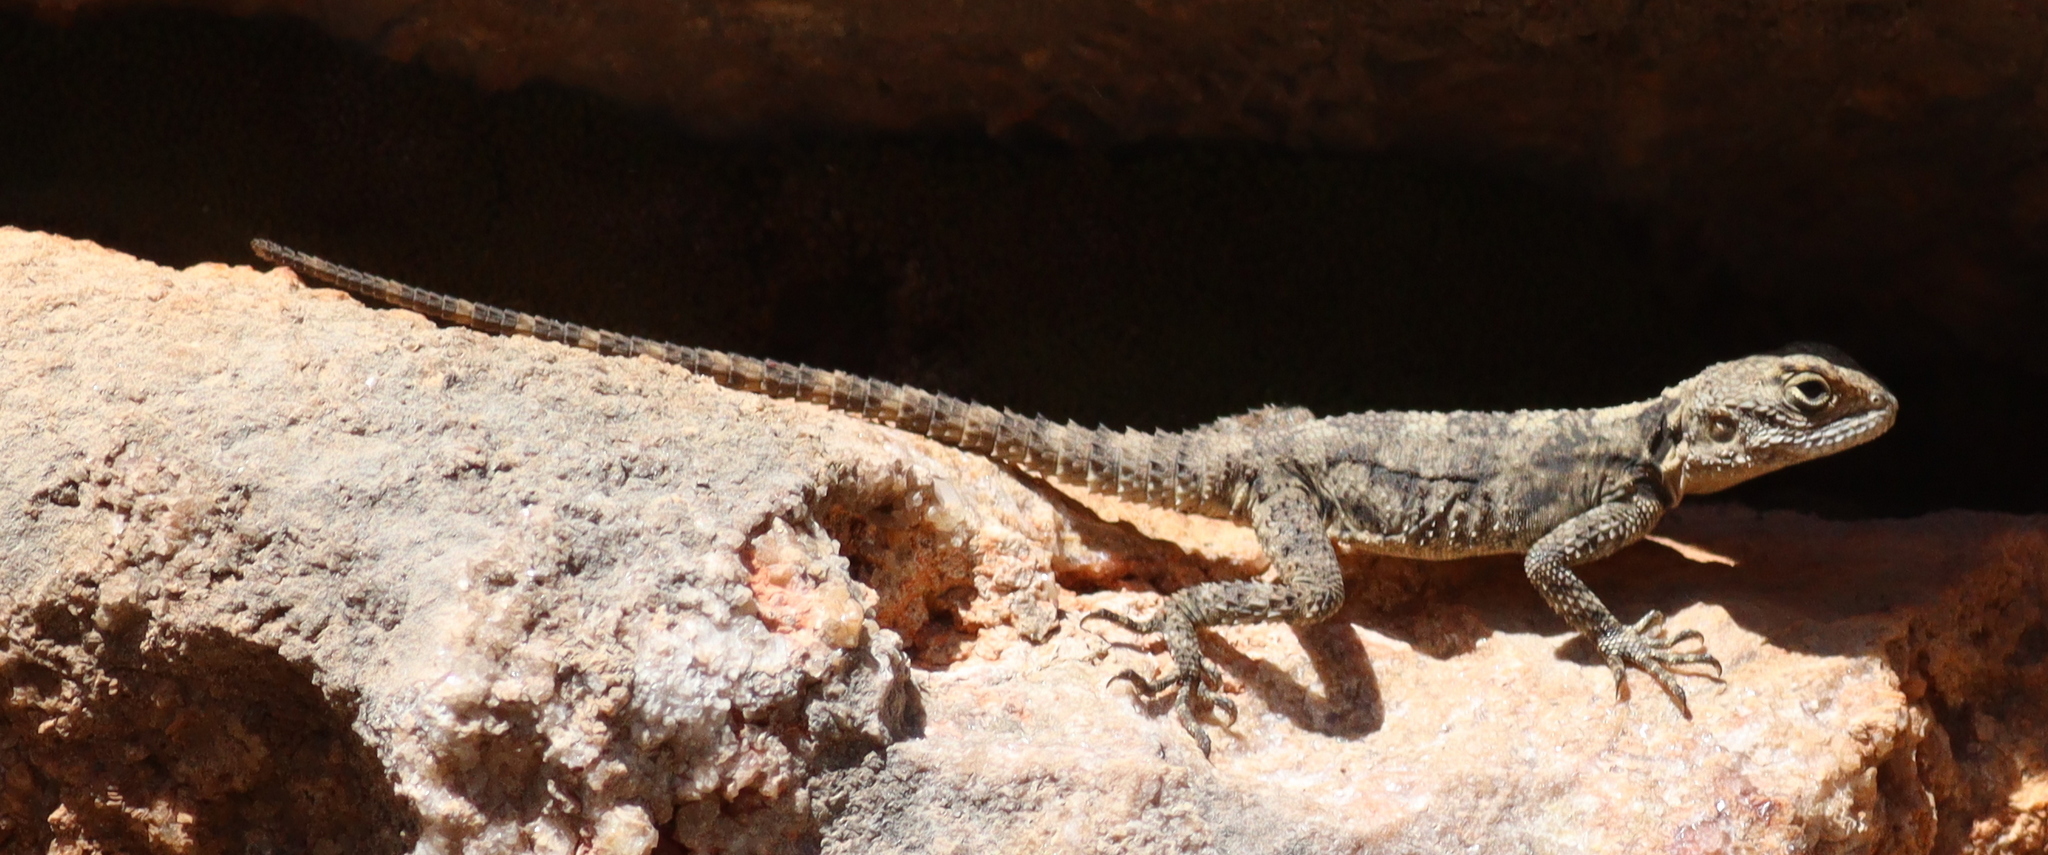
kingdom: Animalia
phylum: Chordata
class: Squamata
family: Agamidae
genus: Stellagama
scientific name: Stellagama stellio
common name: Starred agama
